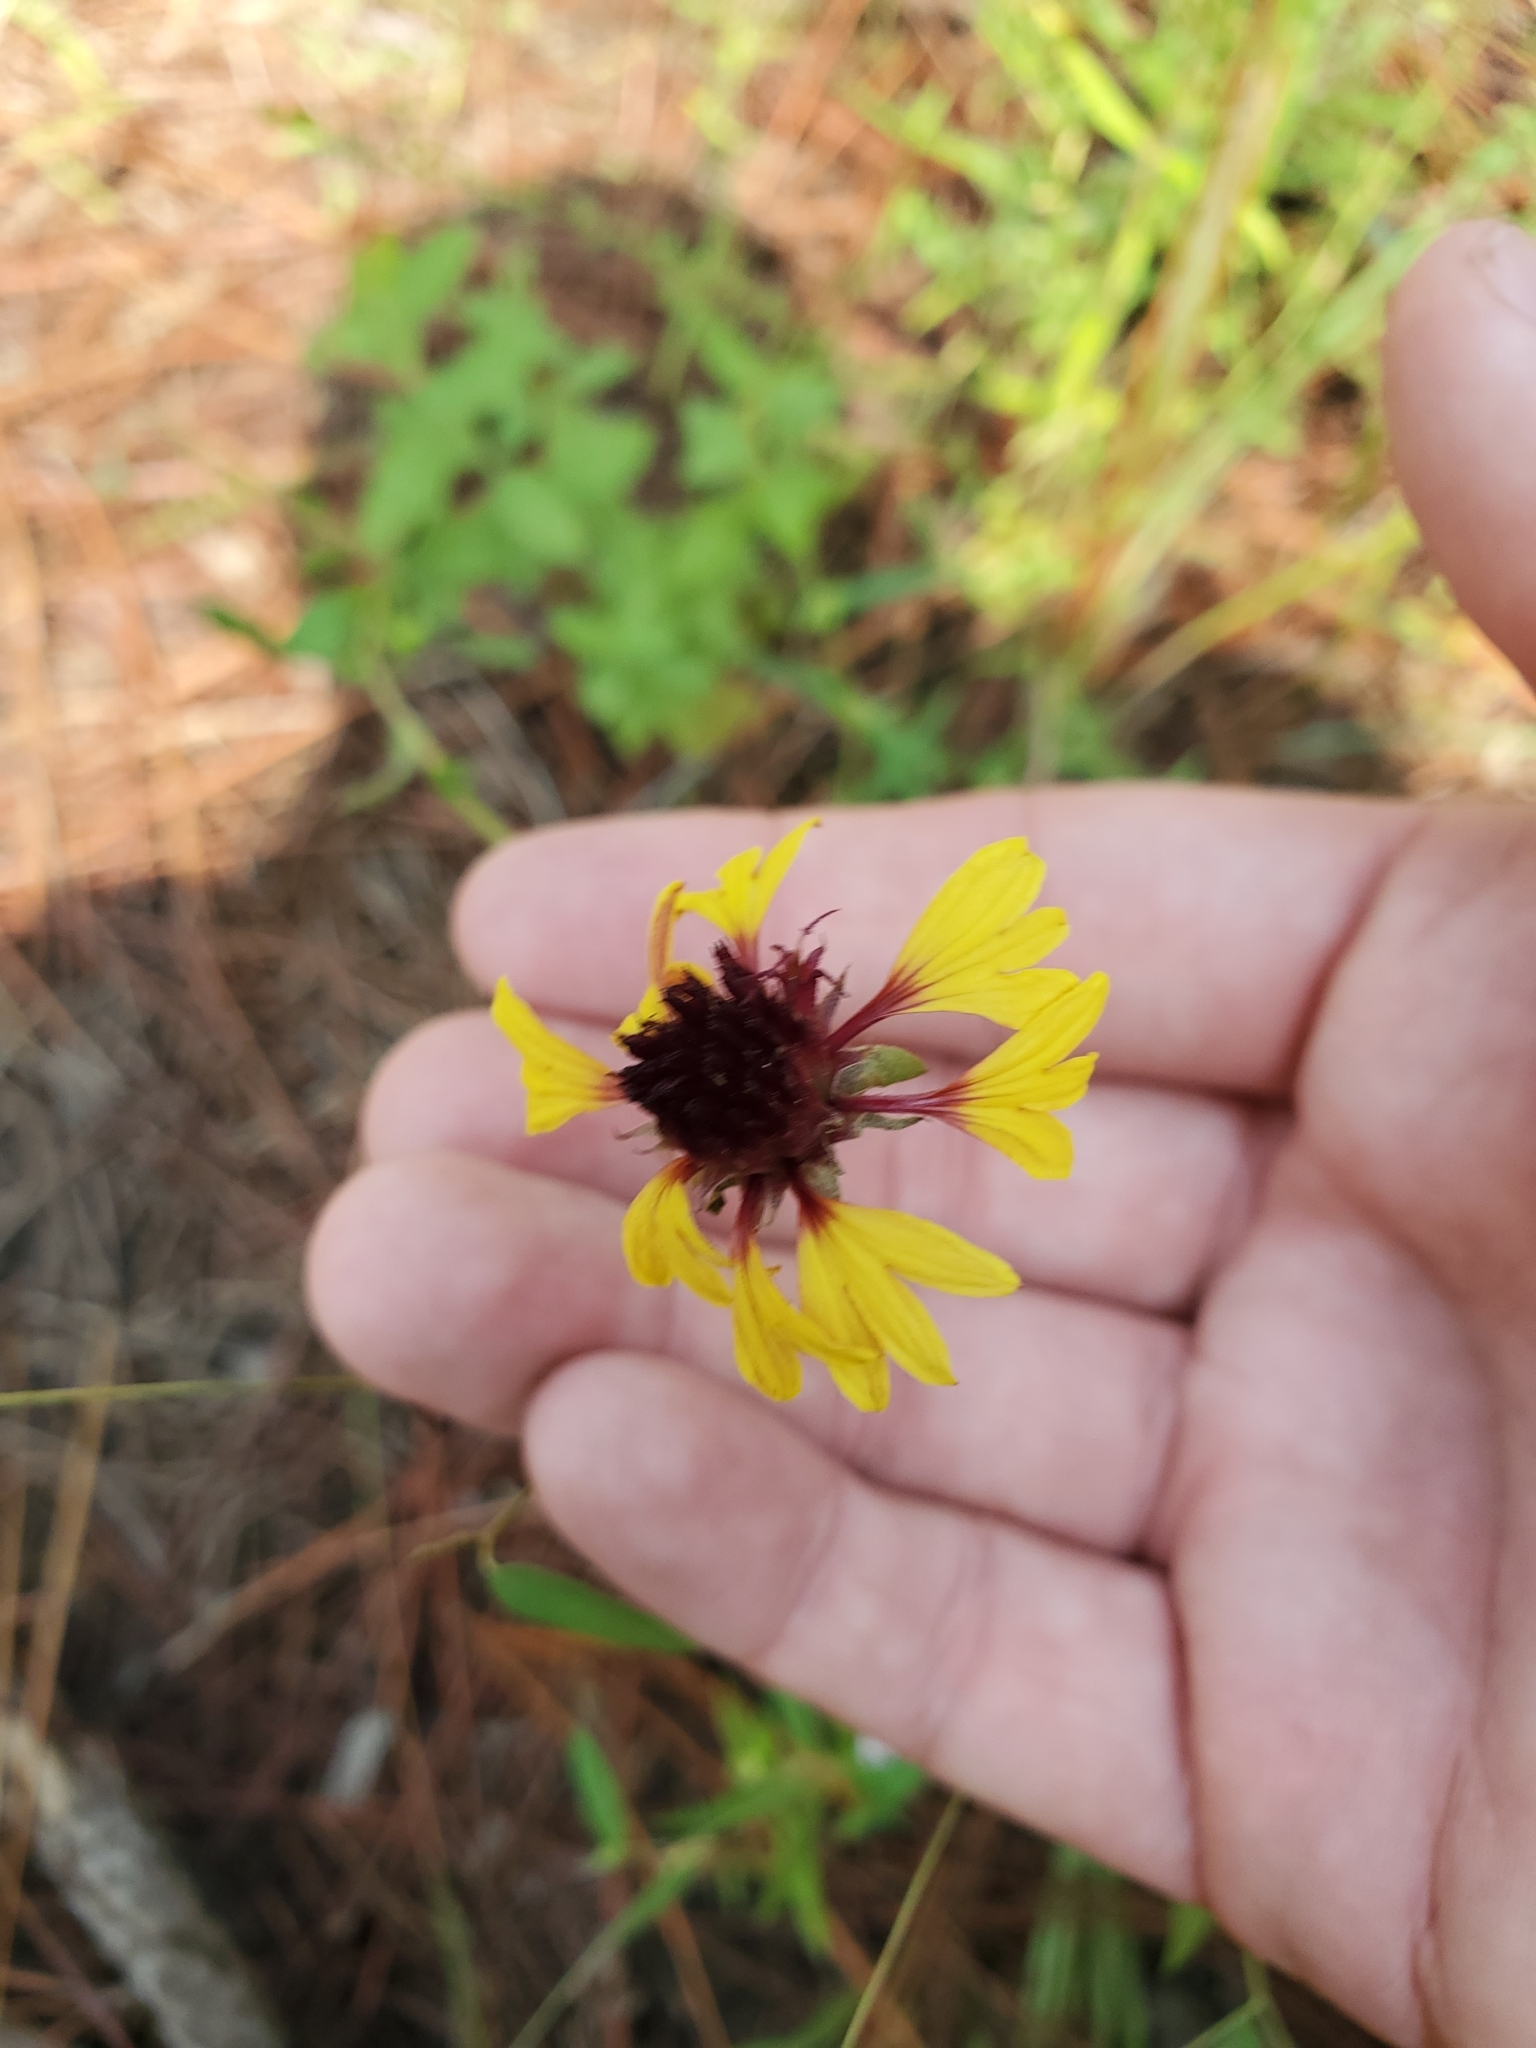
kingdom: Plantae
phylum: Tracheophyta
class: Magnoliopsida
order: Asterales
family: Asteraceae
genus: Gaillardia
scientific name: Gaillardia aestivalis
